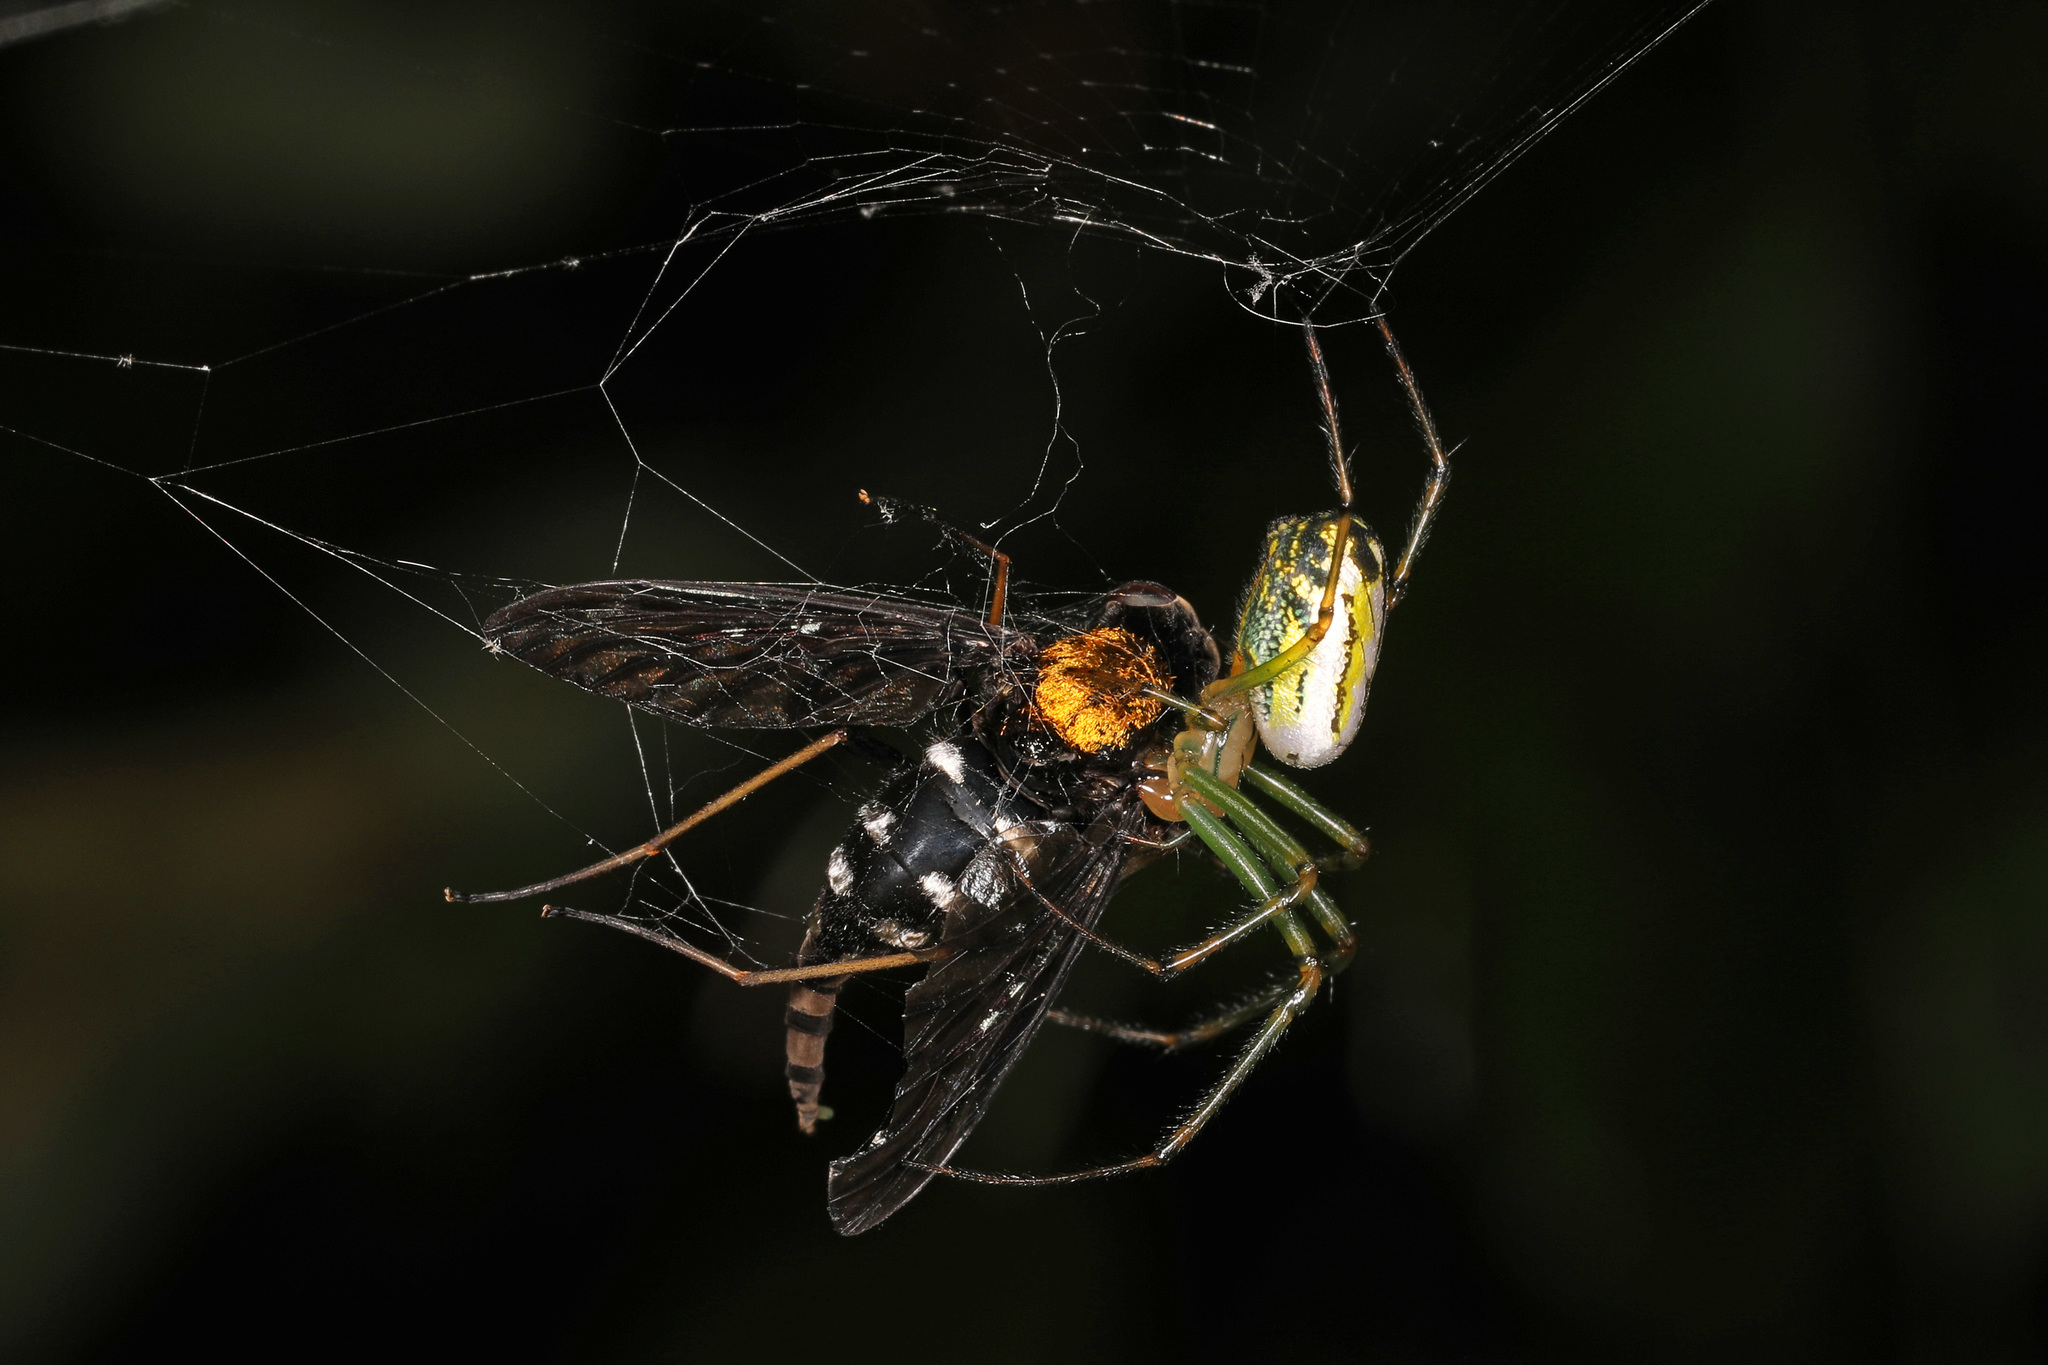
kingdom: Animalia
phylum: Arthropoda
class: Arachnida
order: Araneae
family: Tetragnathidae
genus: Leucauge
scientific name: Leucauge venusta
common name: Longjawed orb weavers
